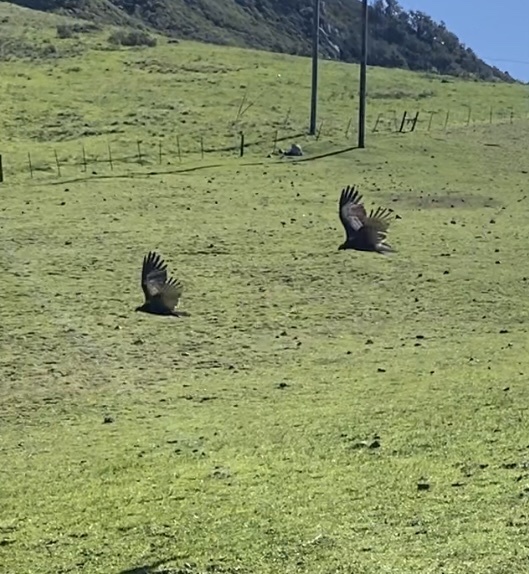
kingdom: Animalia
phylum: Chordata
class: Aves
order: Accipitriformes
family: Cathartidae
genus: Cathartes
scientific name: Cathartes aura
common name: Turkey vulture
